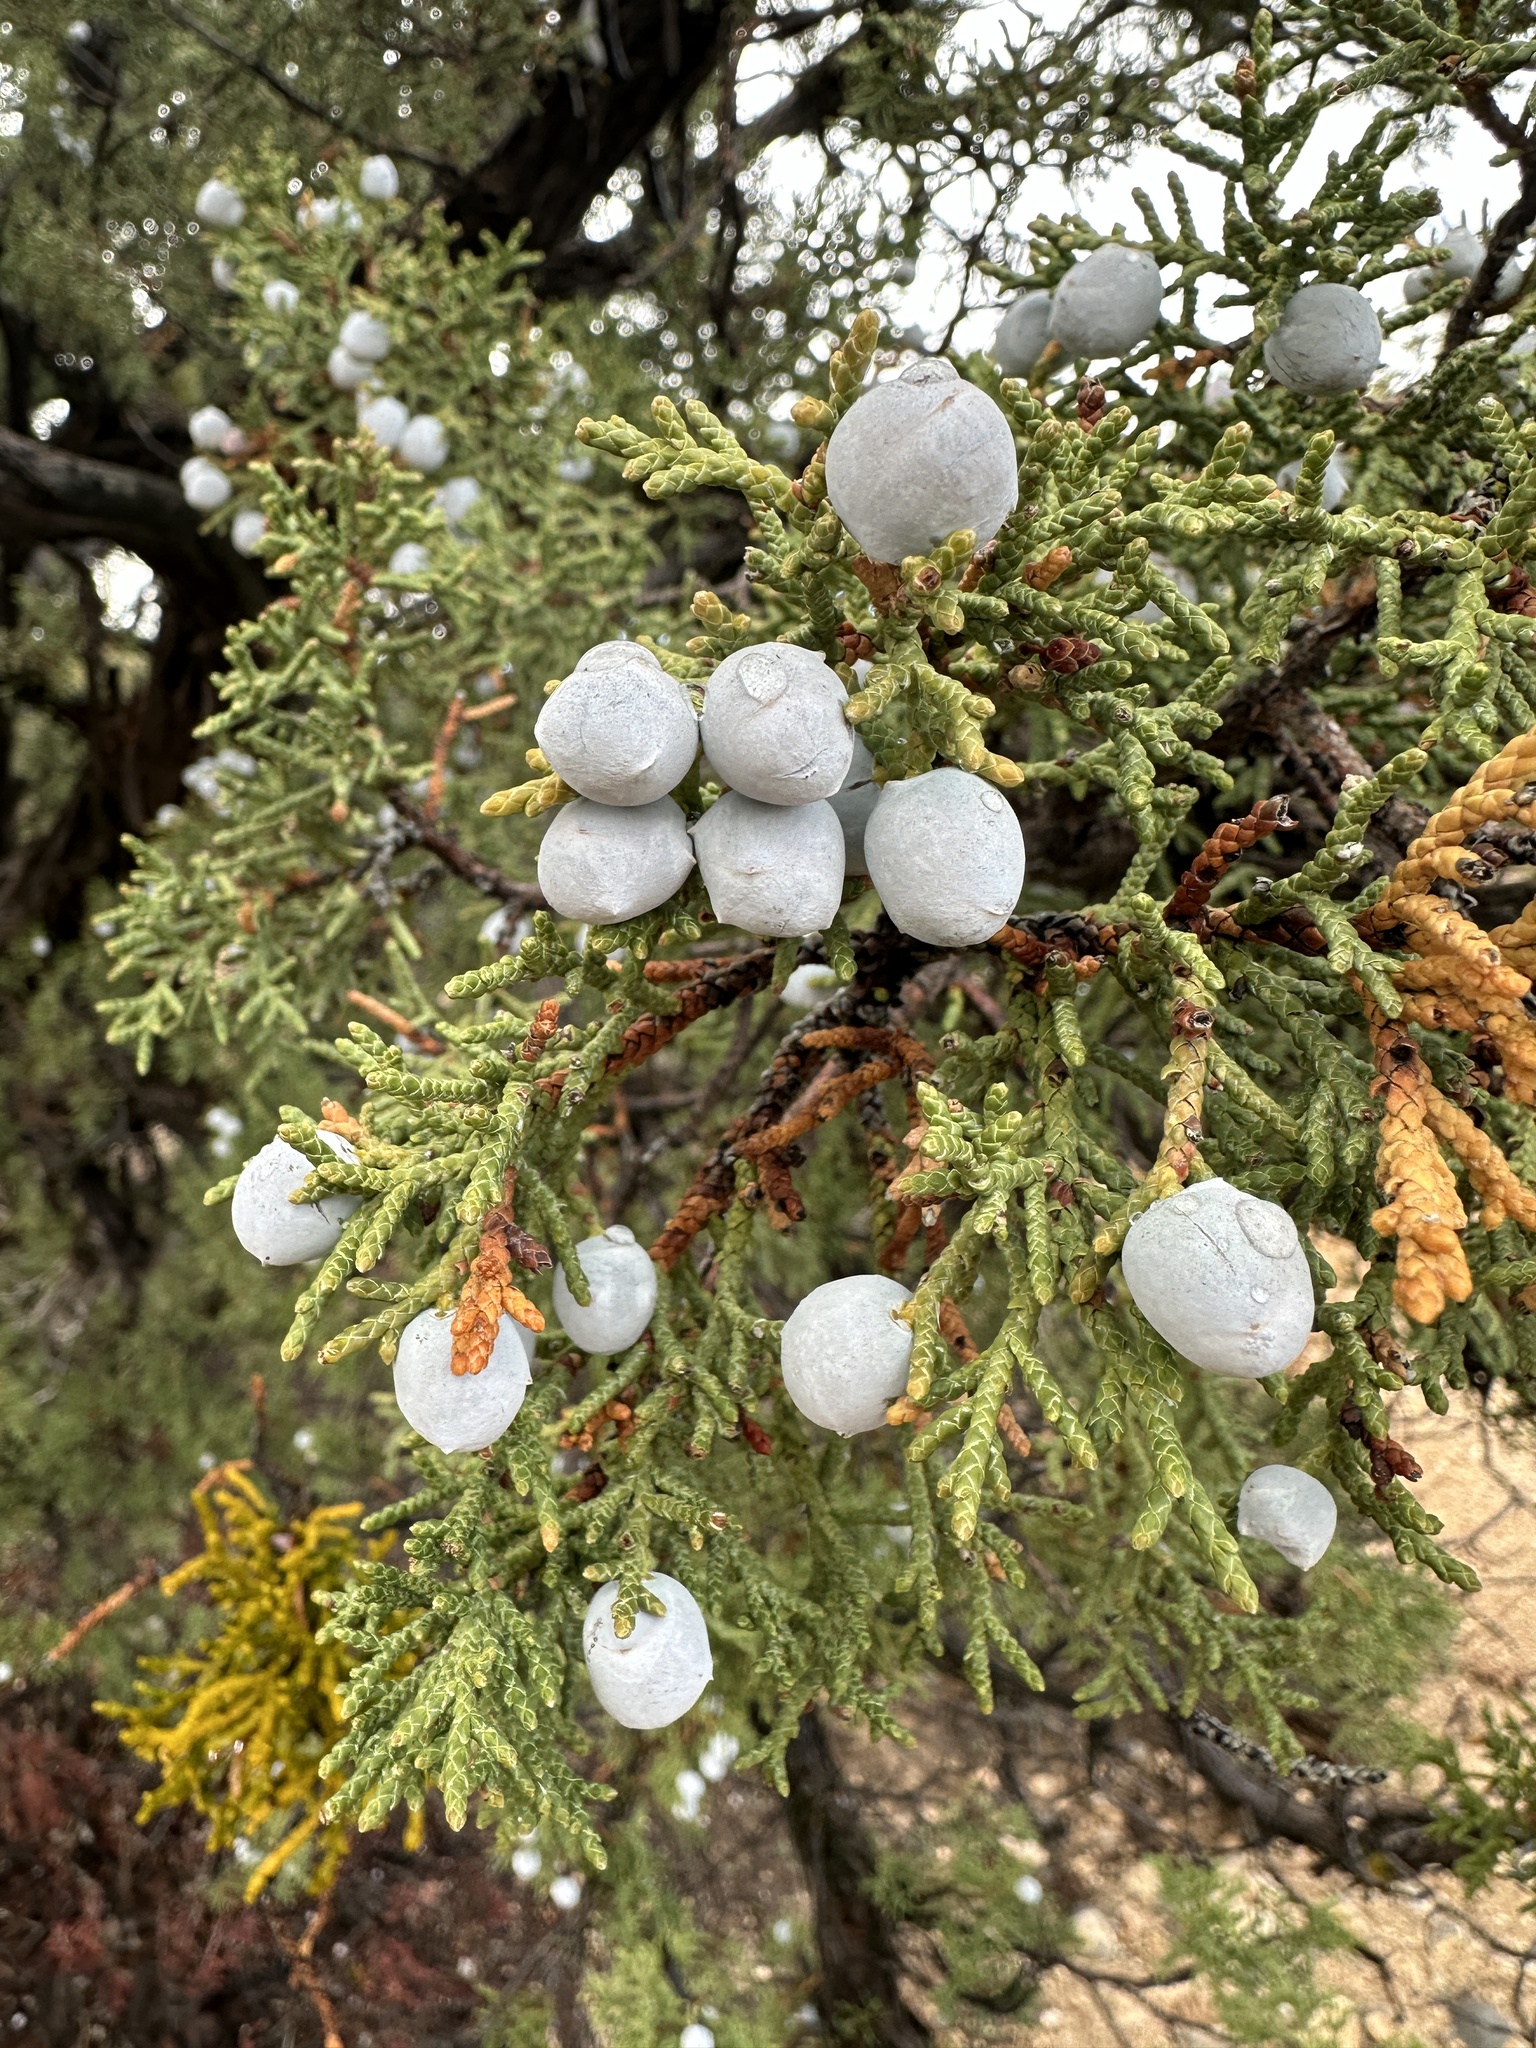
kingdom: Plantae
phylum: Tracheophyta
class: Pinopsida
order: Pinales
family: Cupressaceae
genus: Juniperus
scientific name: Juniperus osteosperma
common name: Utah juniper
